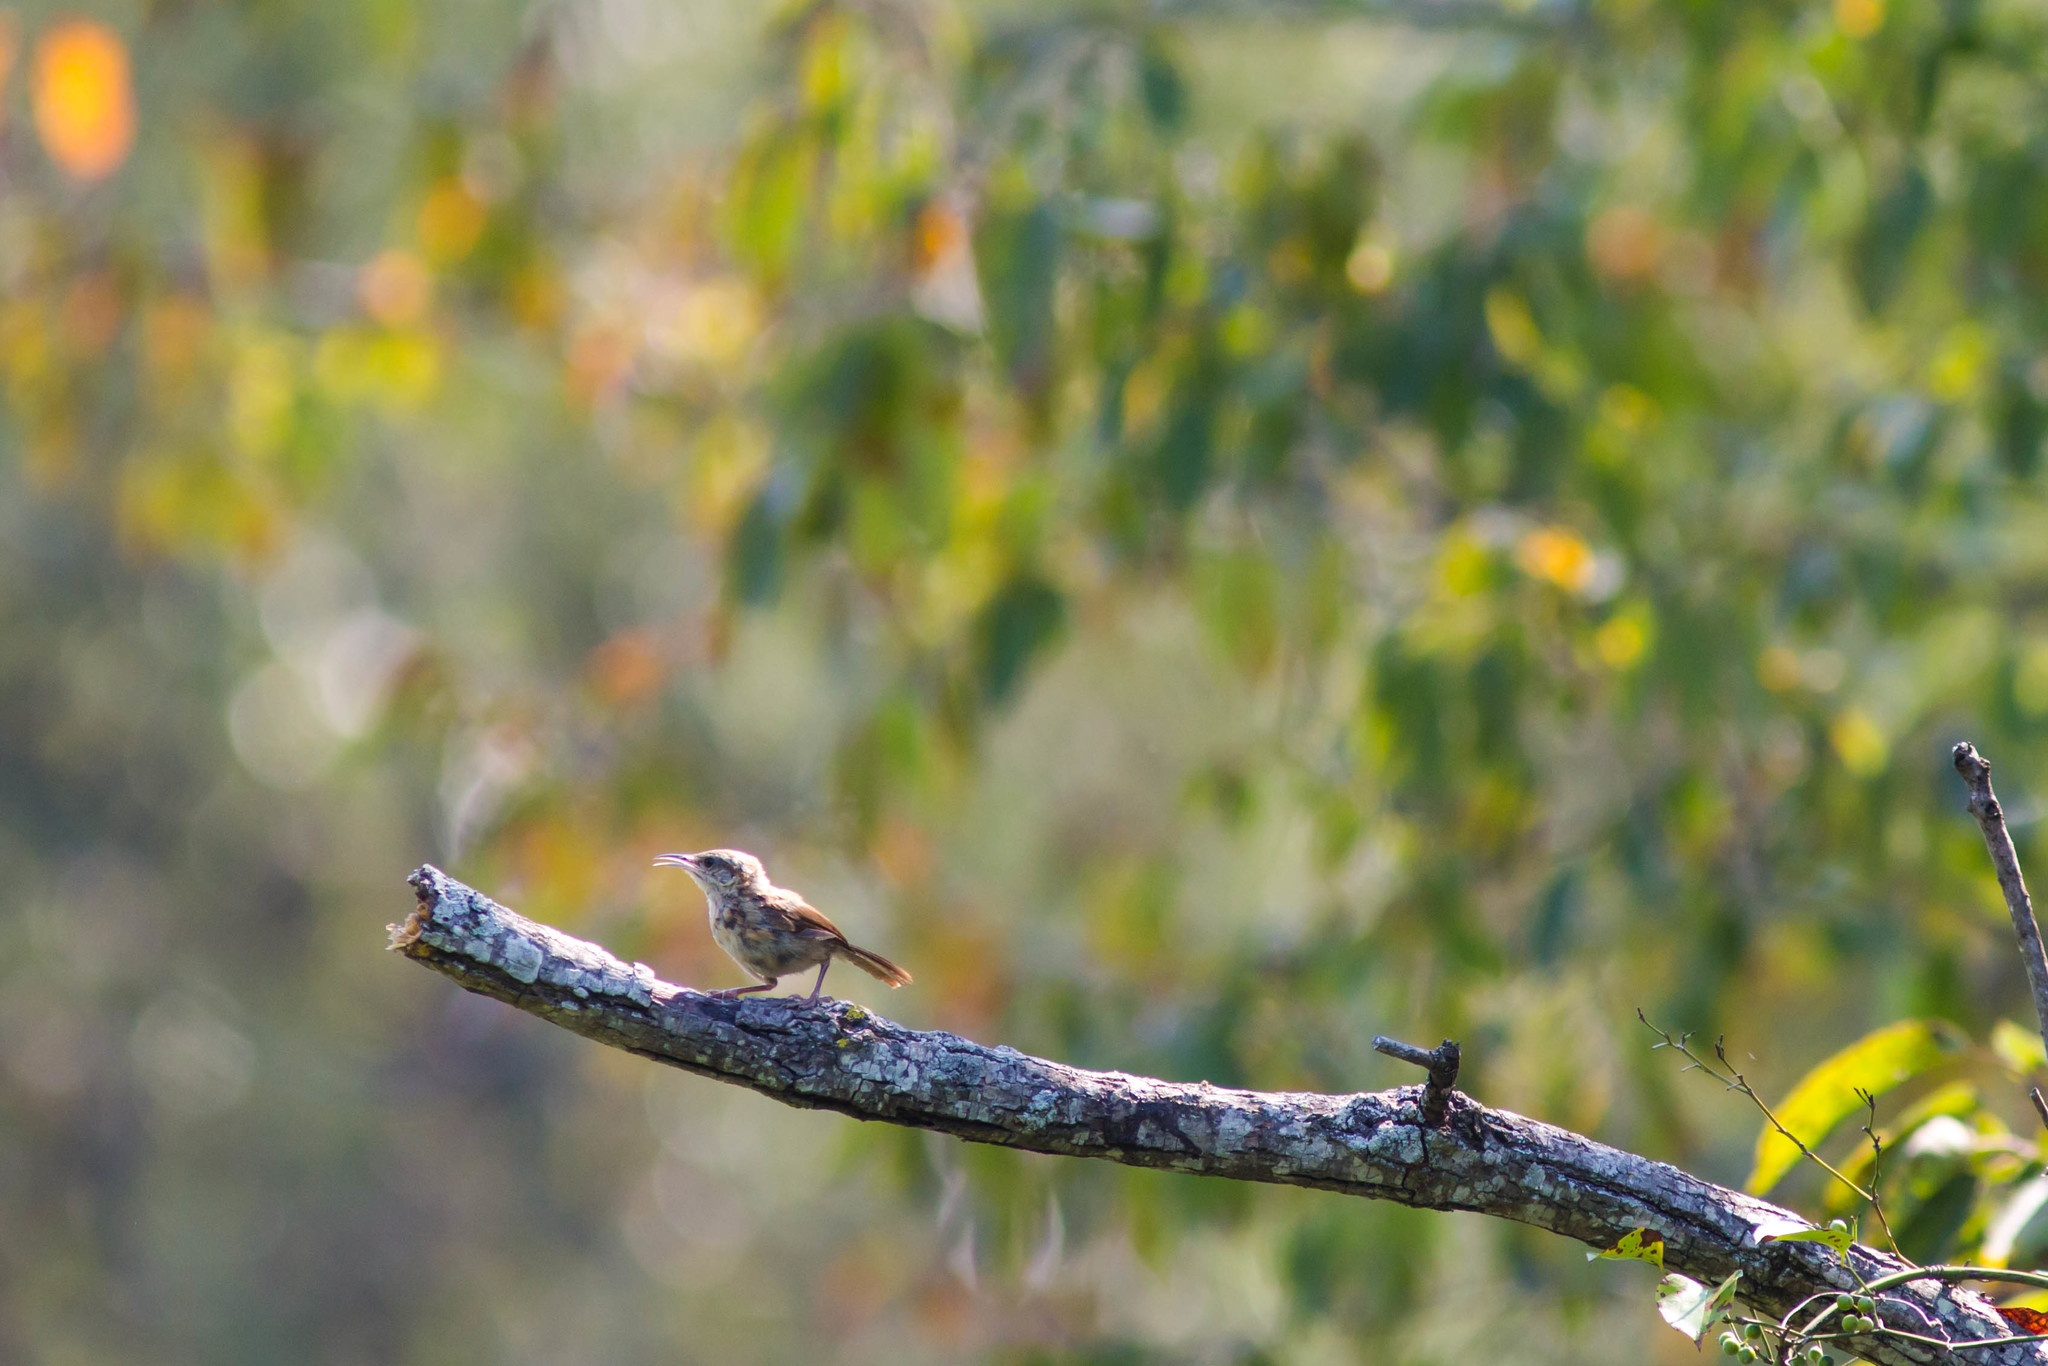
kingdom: Animalia
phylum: Chordata
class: Aves
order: Passeriformes
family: Troglodytidae
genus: Thryothorus
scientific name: Thryothorus ludovicianus
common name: Carolina wren
